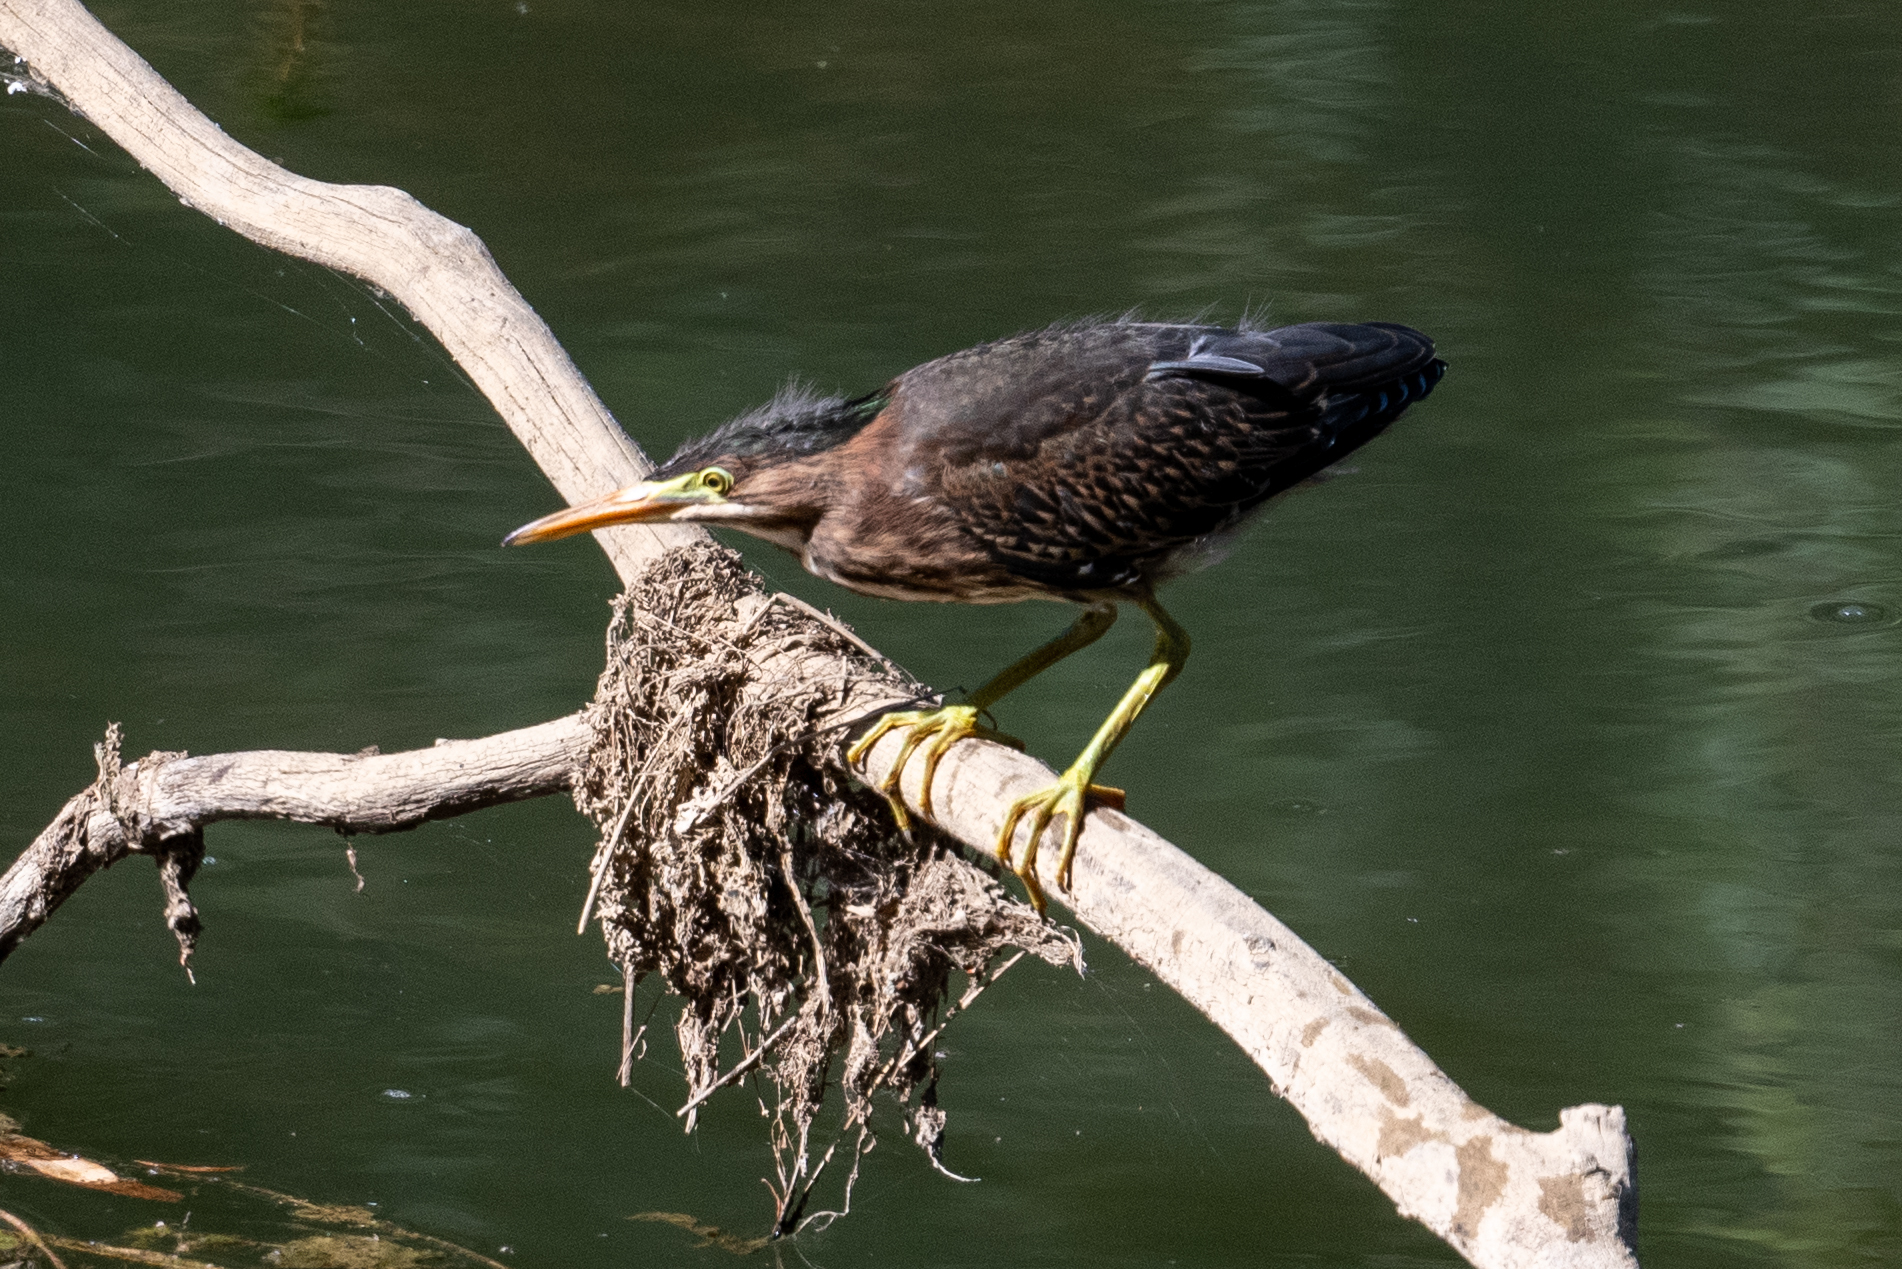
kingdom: Animalia
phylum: Chordata
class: Aves
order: Pelecaniformes
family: Ardeidae
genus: Butorides
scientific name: Butorides virescens
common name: Green heron
